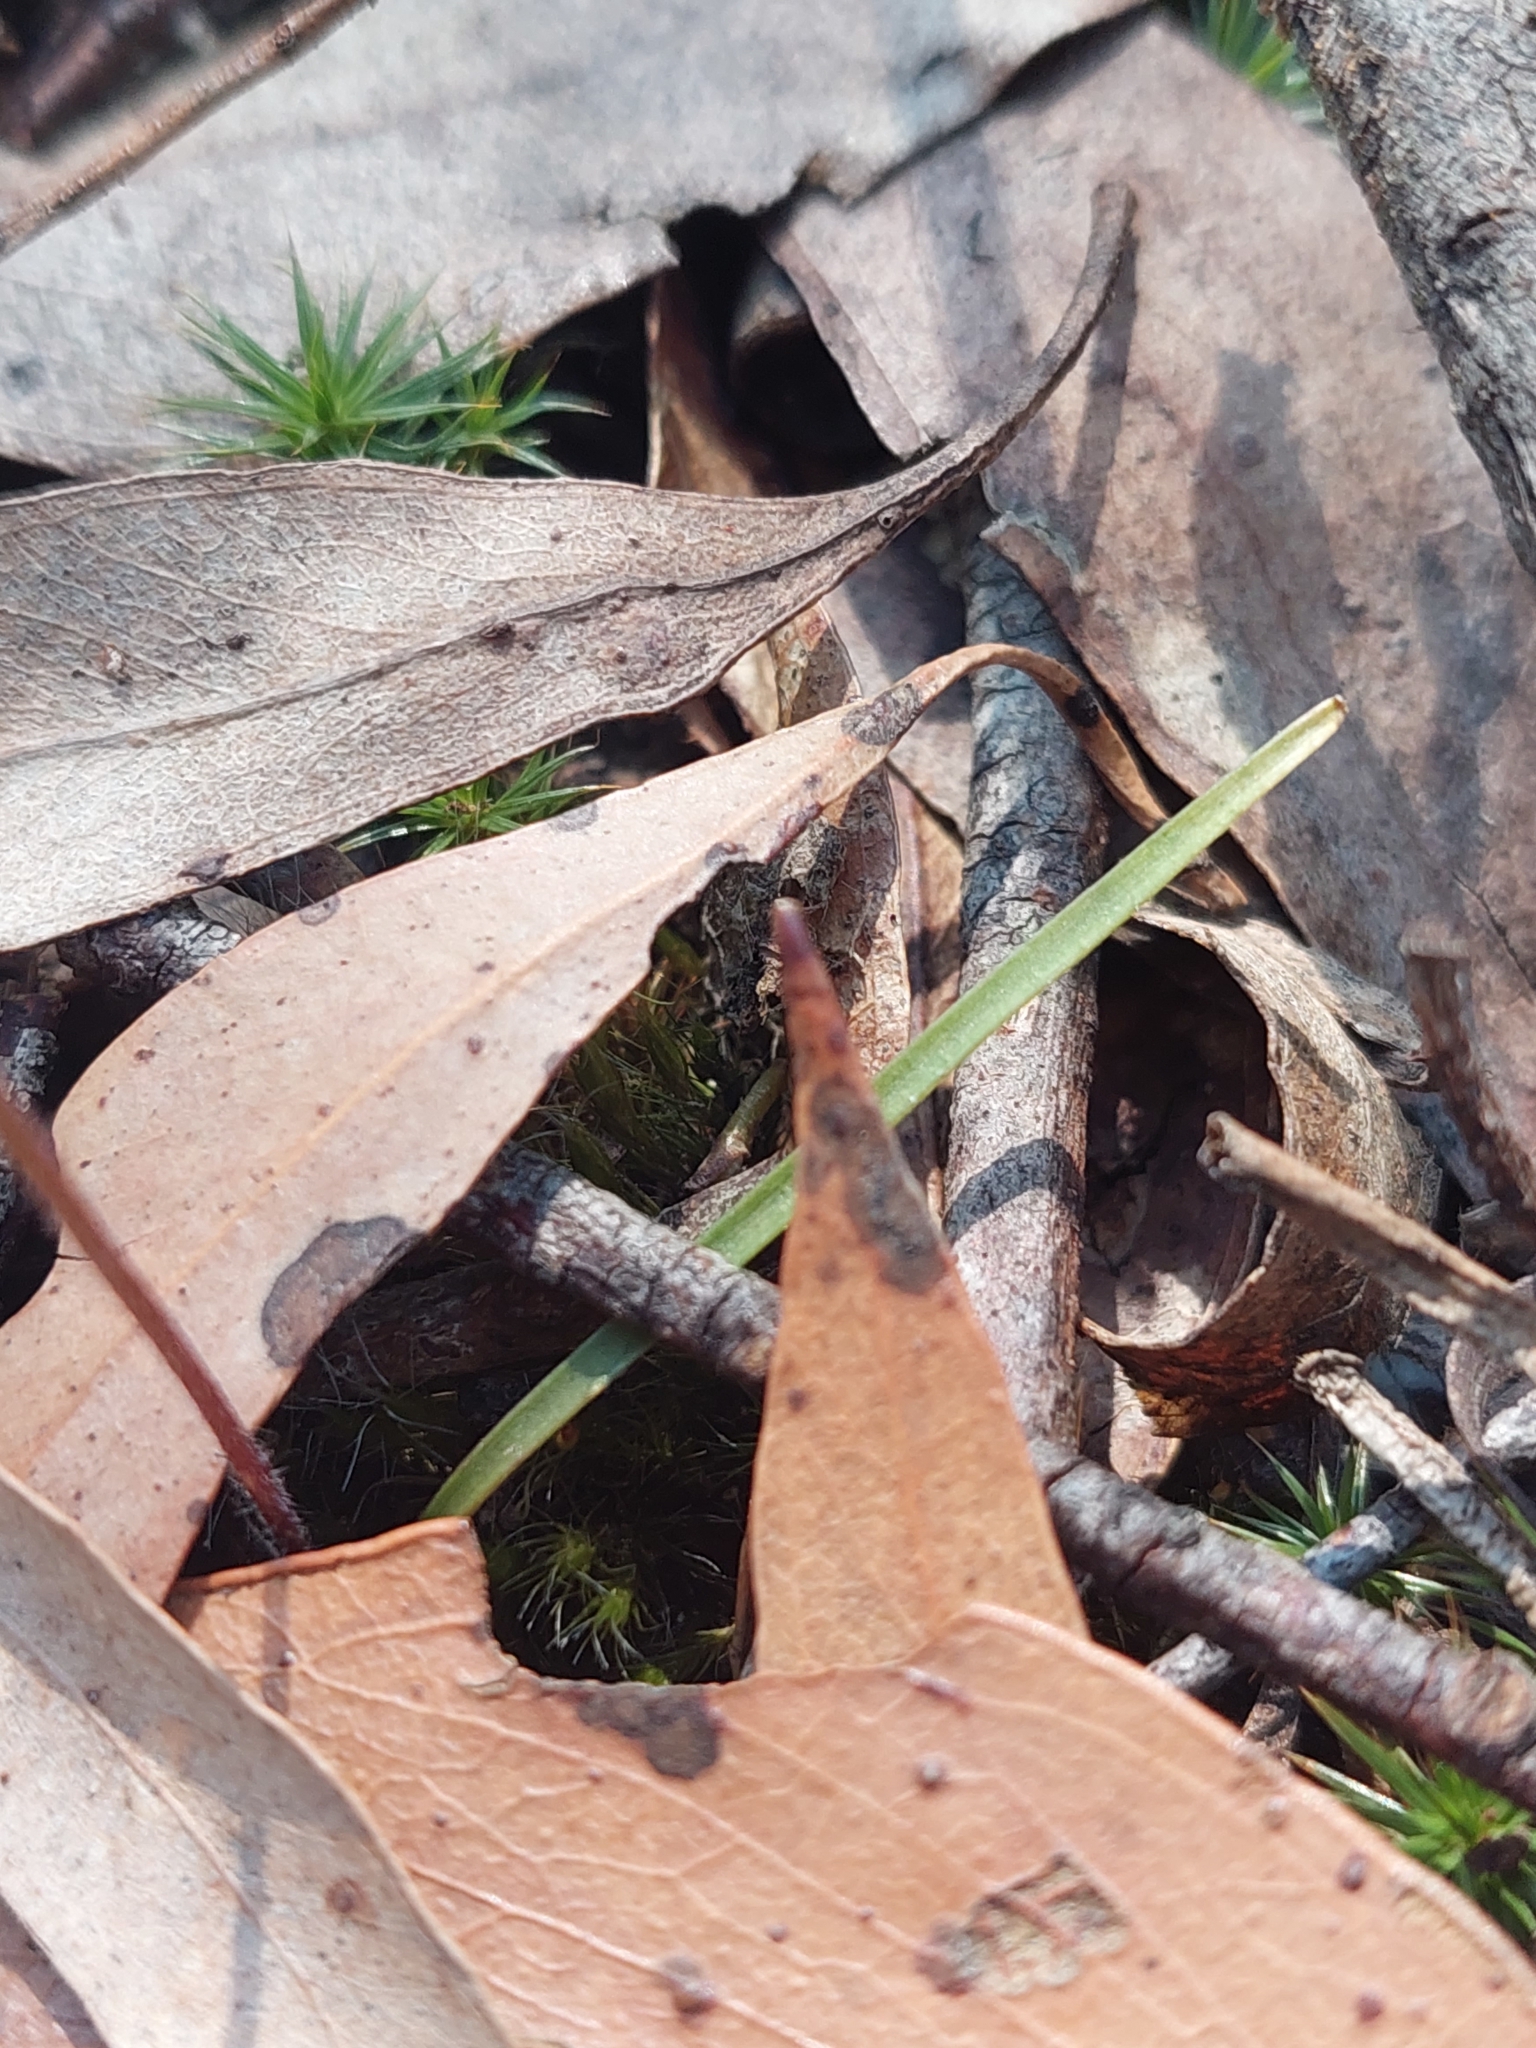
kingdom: Plantae
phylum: Tracheophyta
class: Liliopsida
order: Asparagales
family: Orchidaceae
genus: Caladenia
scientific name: Caladenia transitoria
